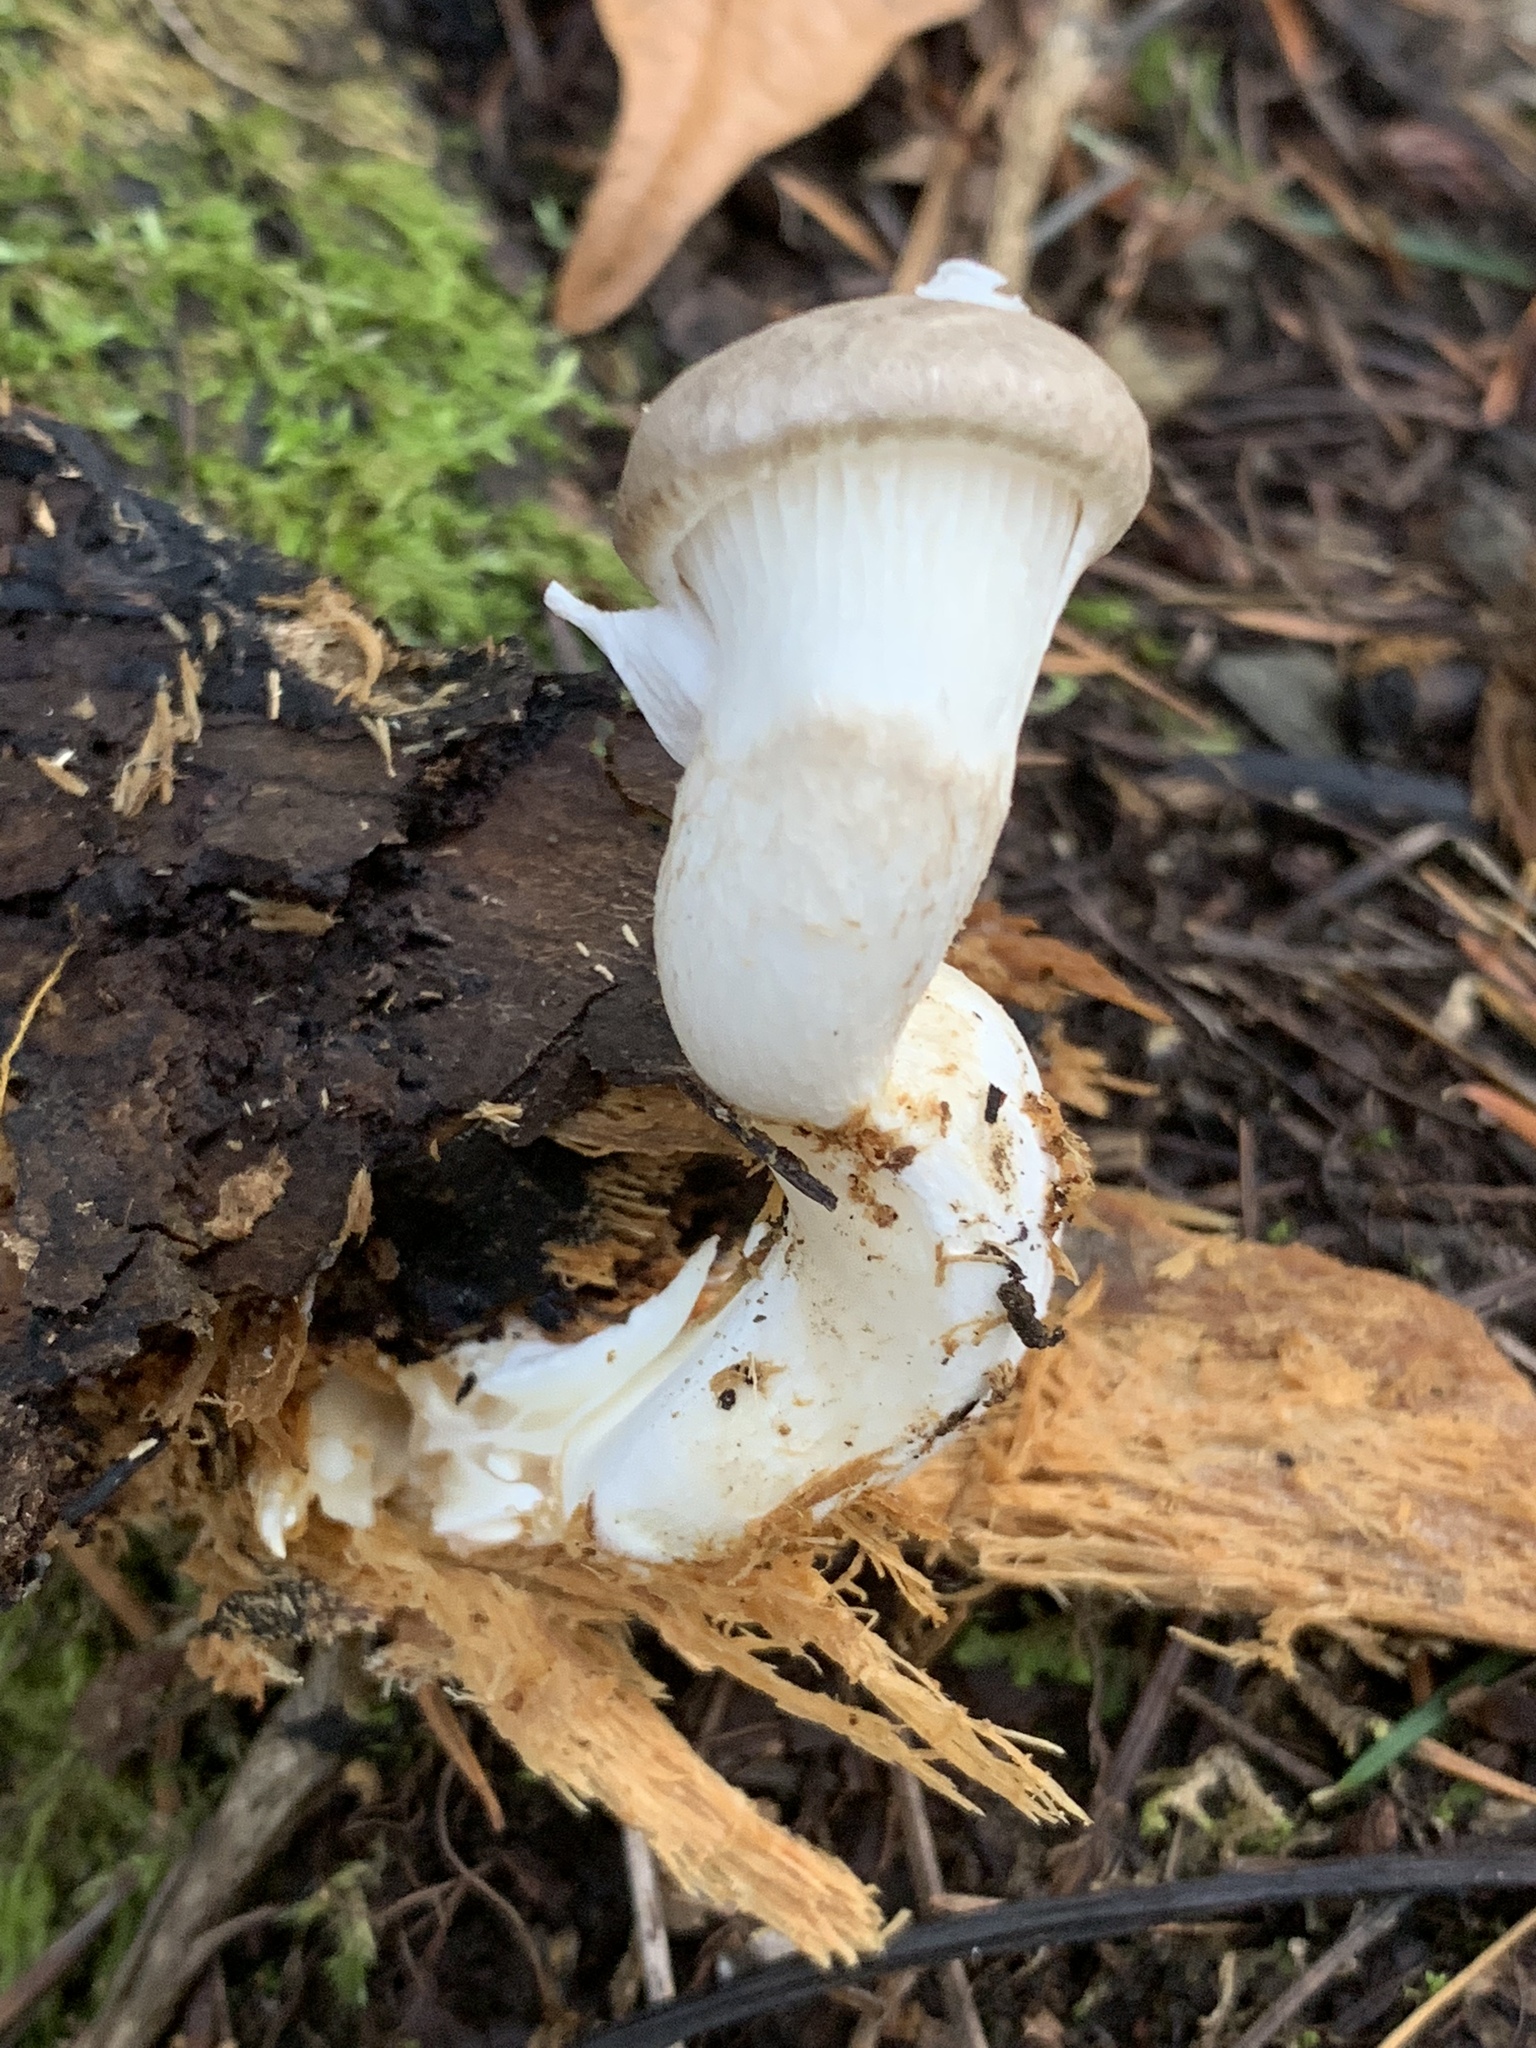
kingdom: Fungi
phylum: Basidiomycota
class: Agaricomycetes
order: Agaricales
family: Pleurotaceae
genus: Pleurotus
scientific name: Pleurotus dryinus
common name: Veiled oyster
